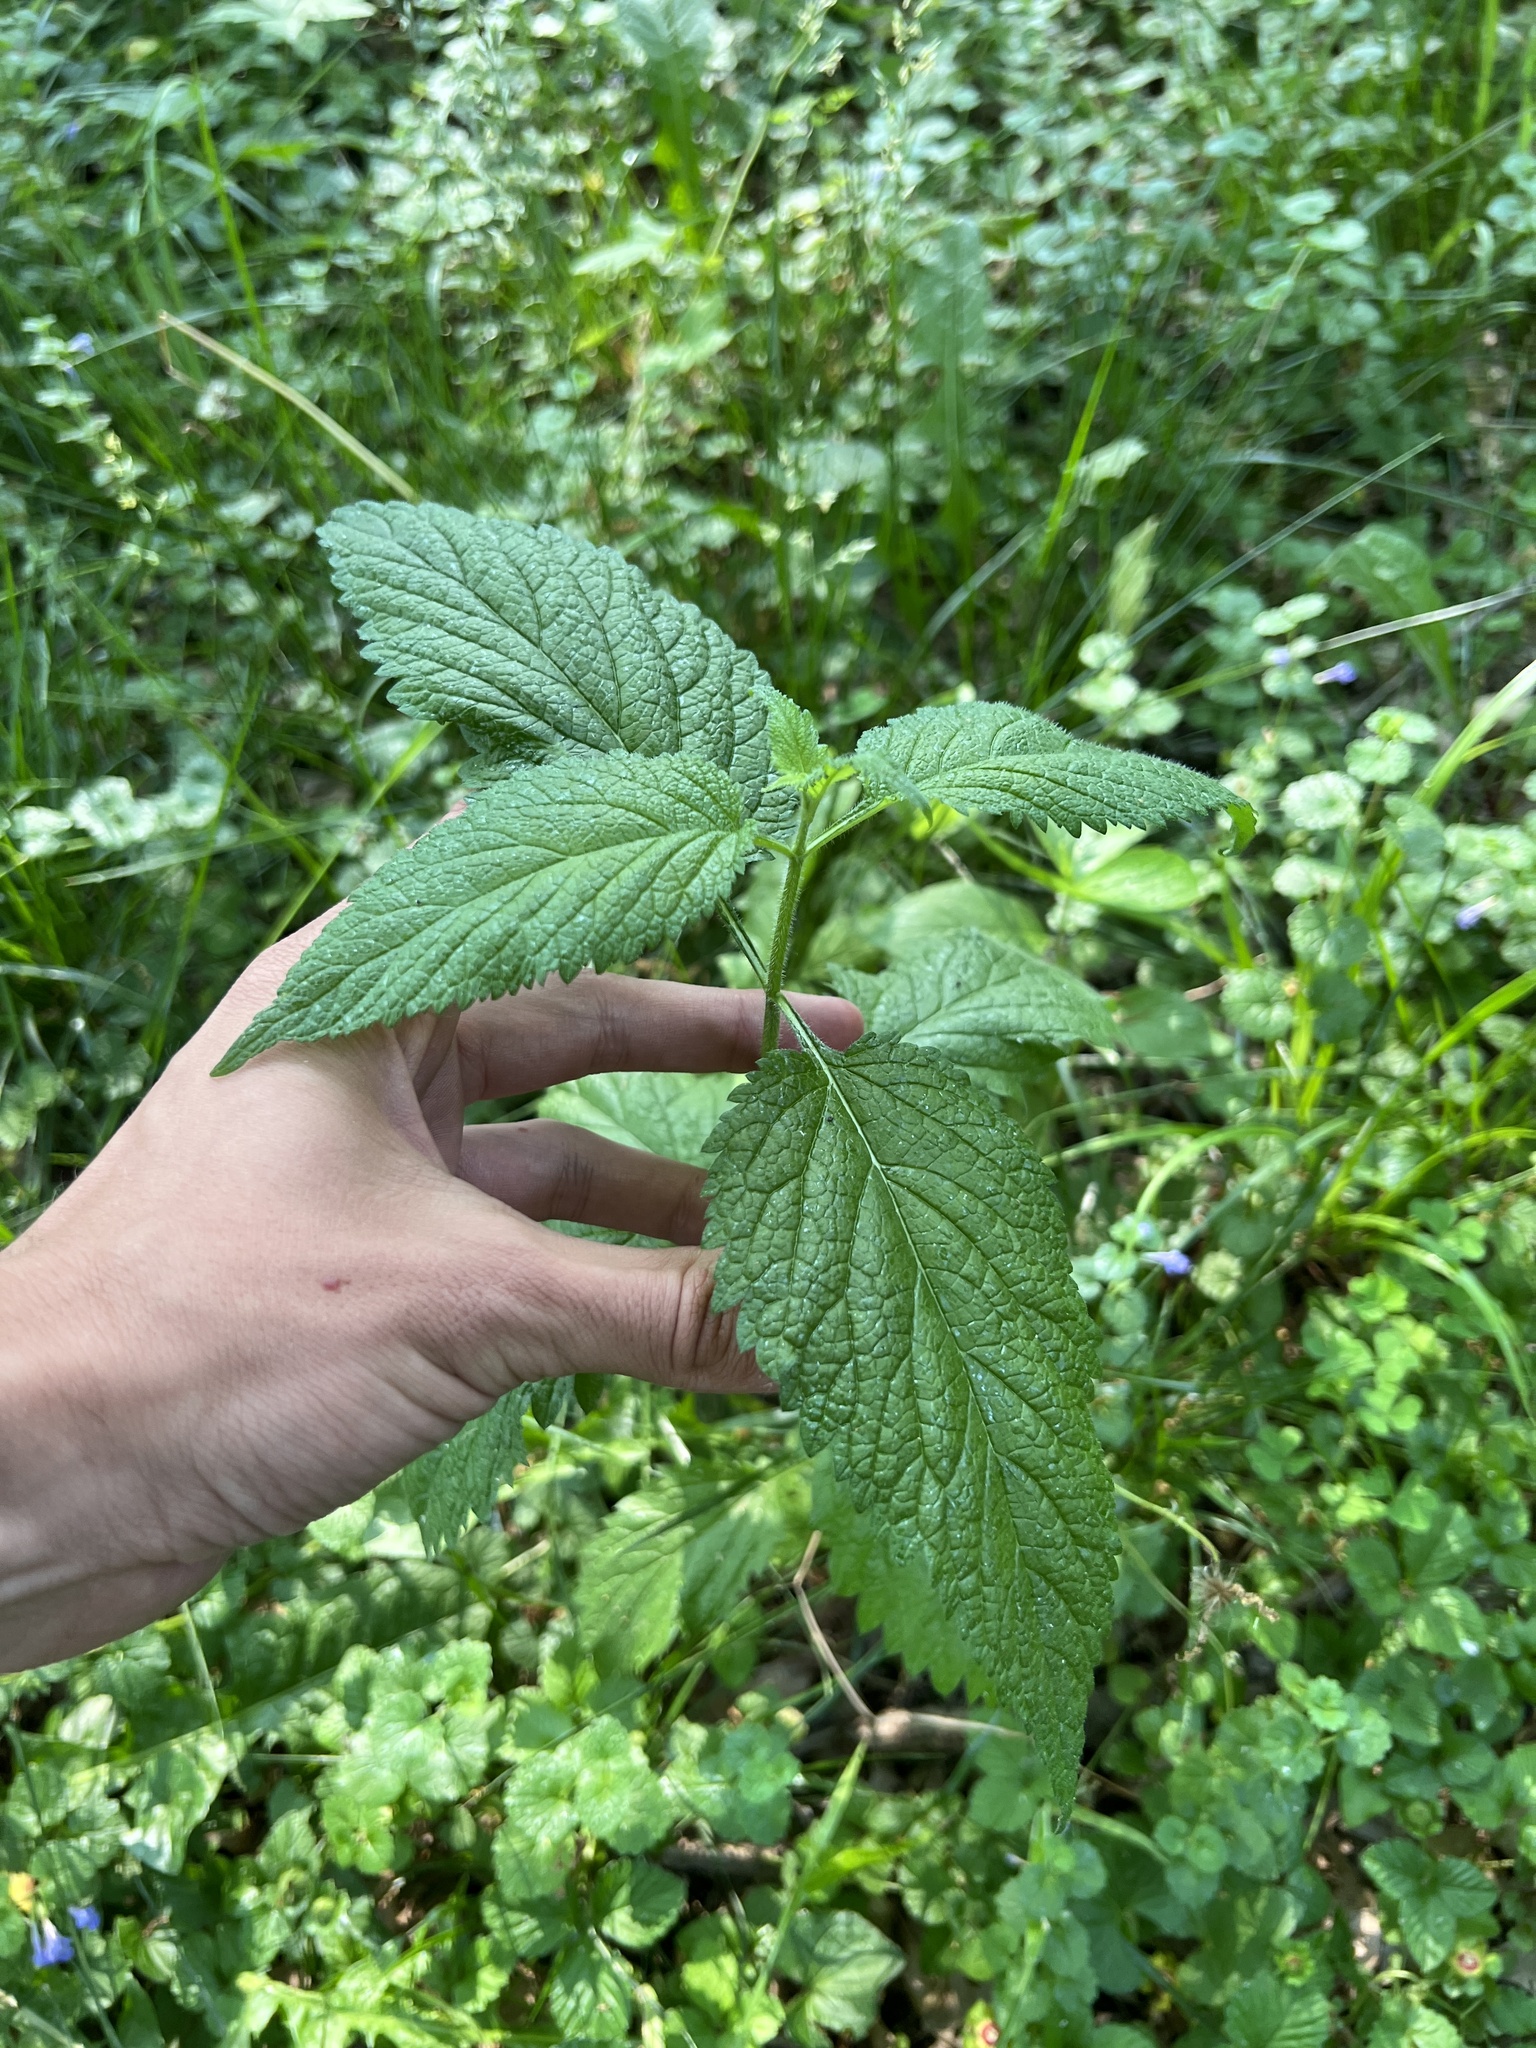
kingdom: Plantae
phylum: Tracheophyta
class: Magnoliopsida
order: Lamiales
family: Verbenaceae
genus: Verbena
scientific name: Verbena urticifolia
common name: Nettle-leaved vervain
